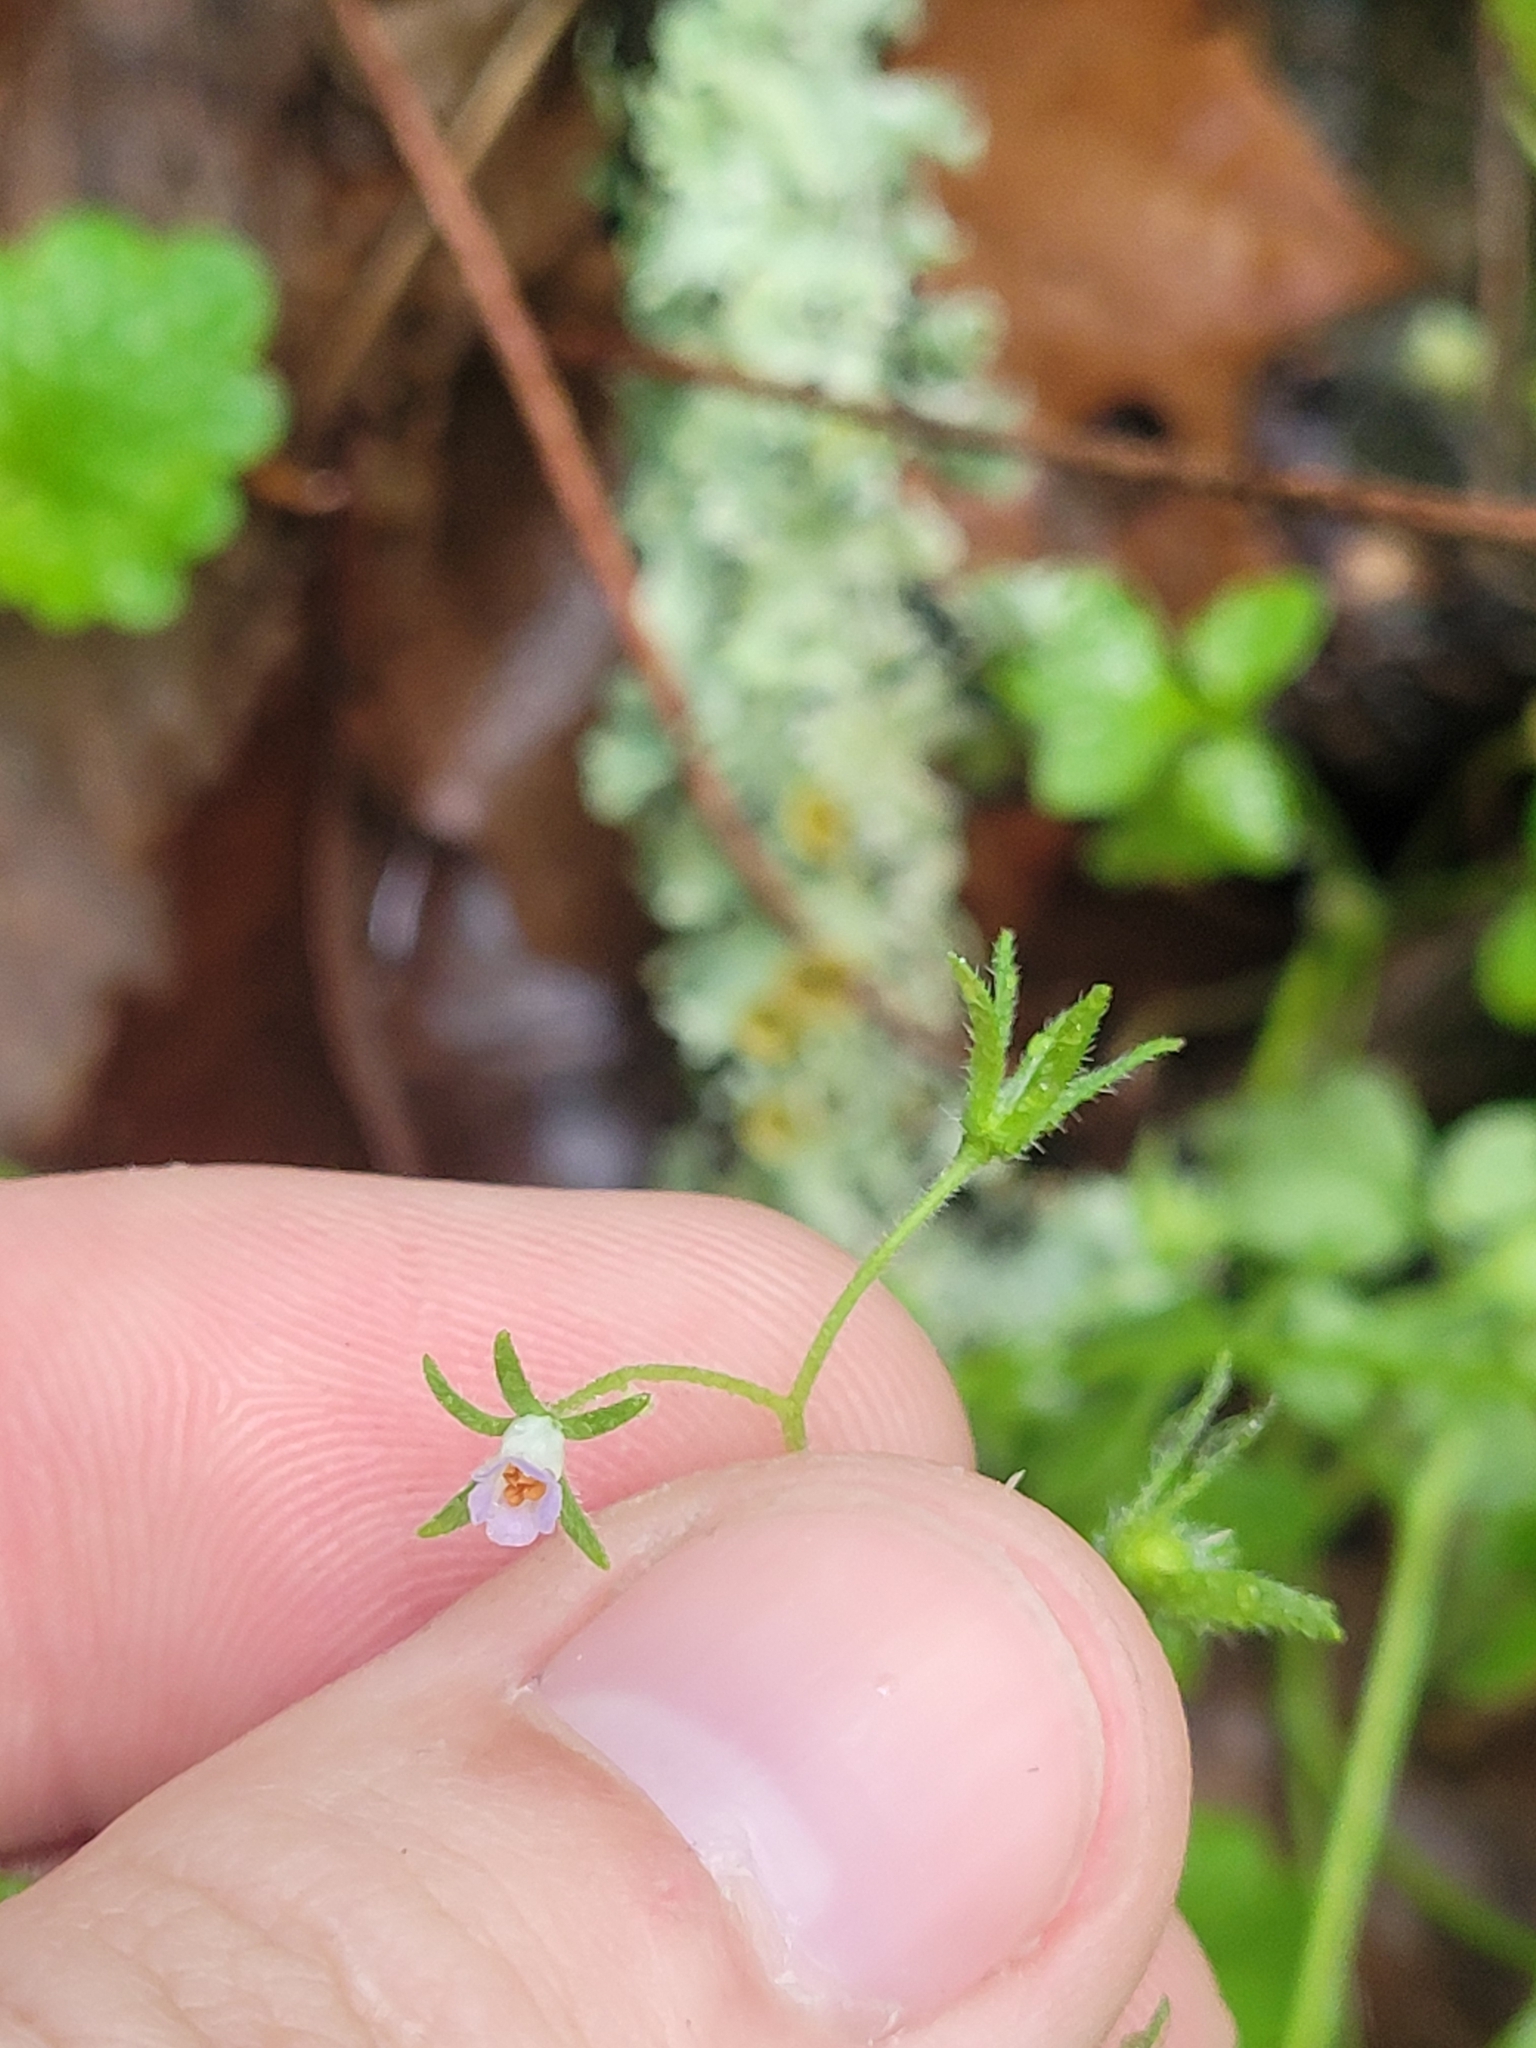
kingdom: Plantae
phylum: Tracheophyta
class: Magnoliopsida
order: Boraginales
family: Hydrophyllaceae
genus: Phacelia
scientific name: Phacelia covillei
